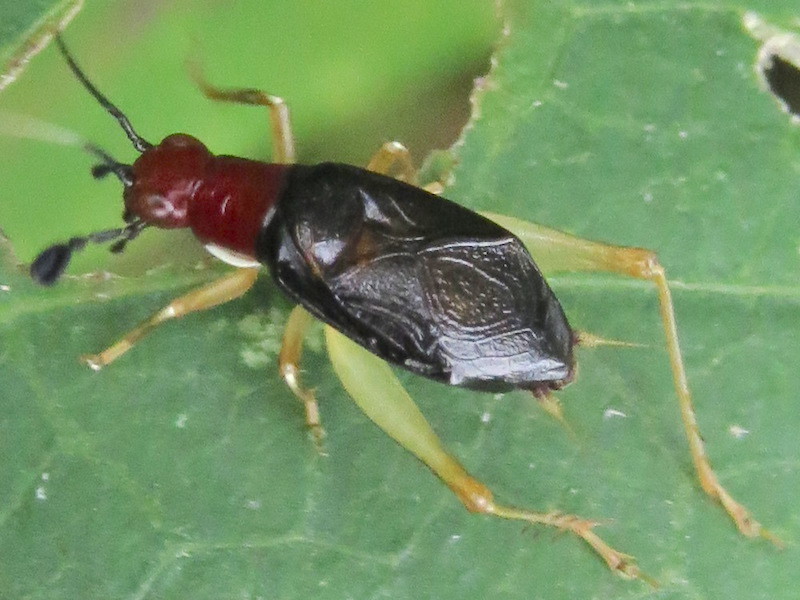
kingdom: Animalia
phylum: Arthropoda
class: Insecta
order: Orthoptera
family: Trigonidiidae
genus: Phyllopalpus
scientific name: Phyllopalpus pulchellus
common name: Handsome trig
